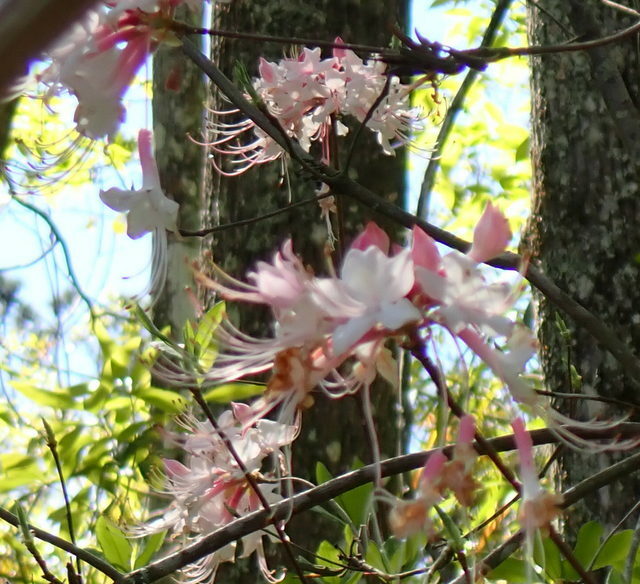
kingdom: Plantae
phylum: Tracheophyta
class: Magnoliopsida
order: Ericales
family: Ericaceae
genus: Rhododendron
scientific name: Rhododendron canescens
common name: Mountain azalea
